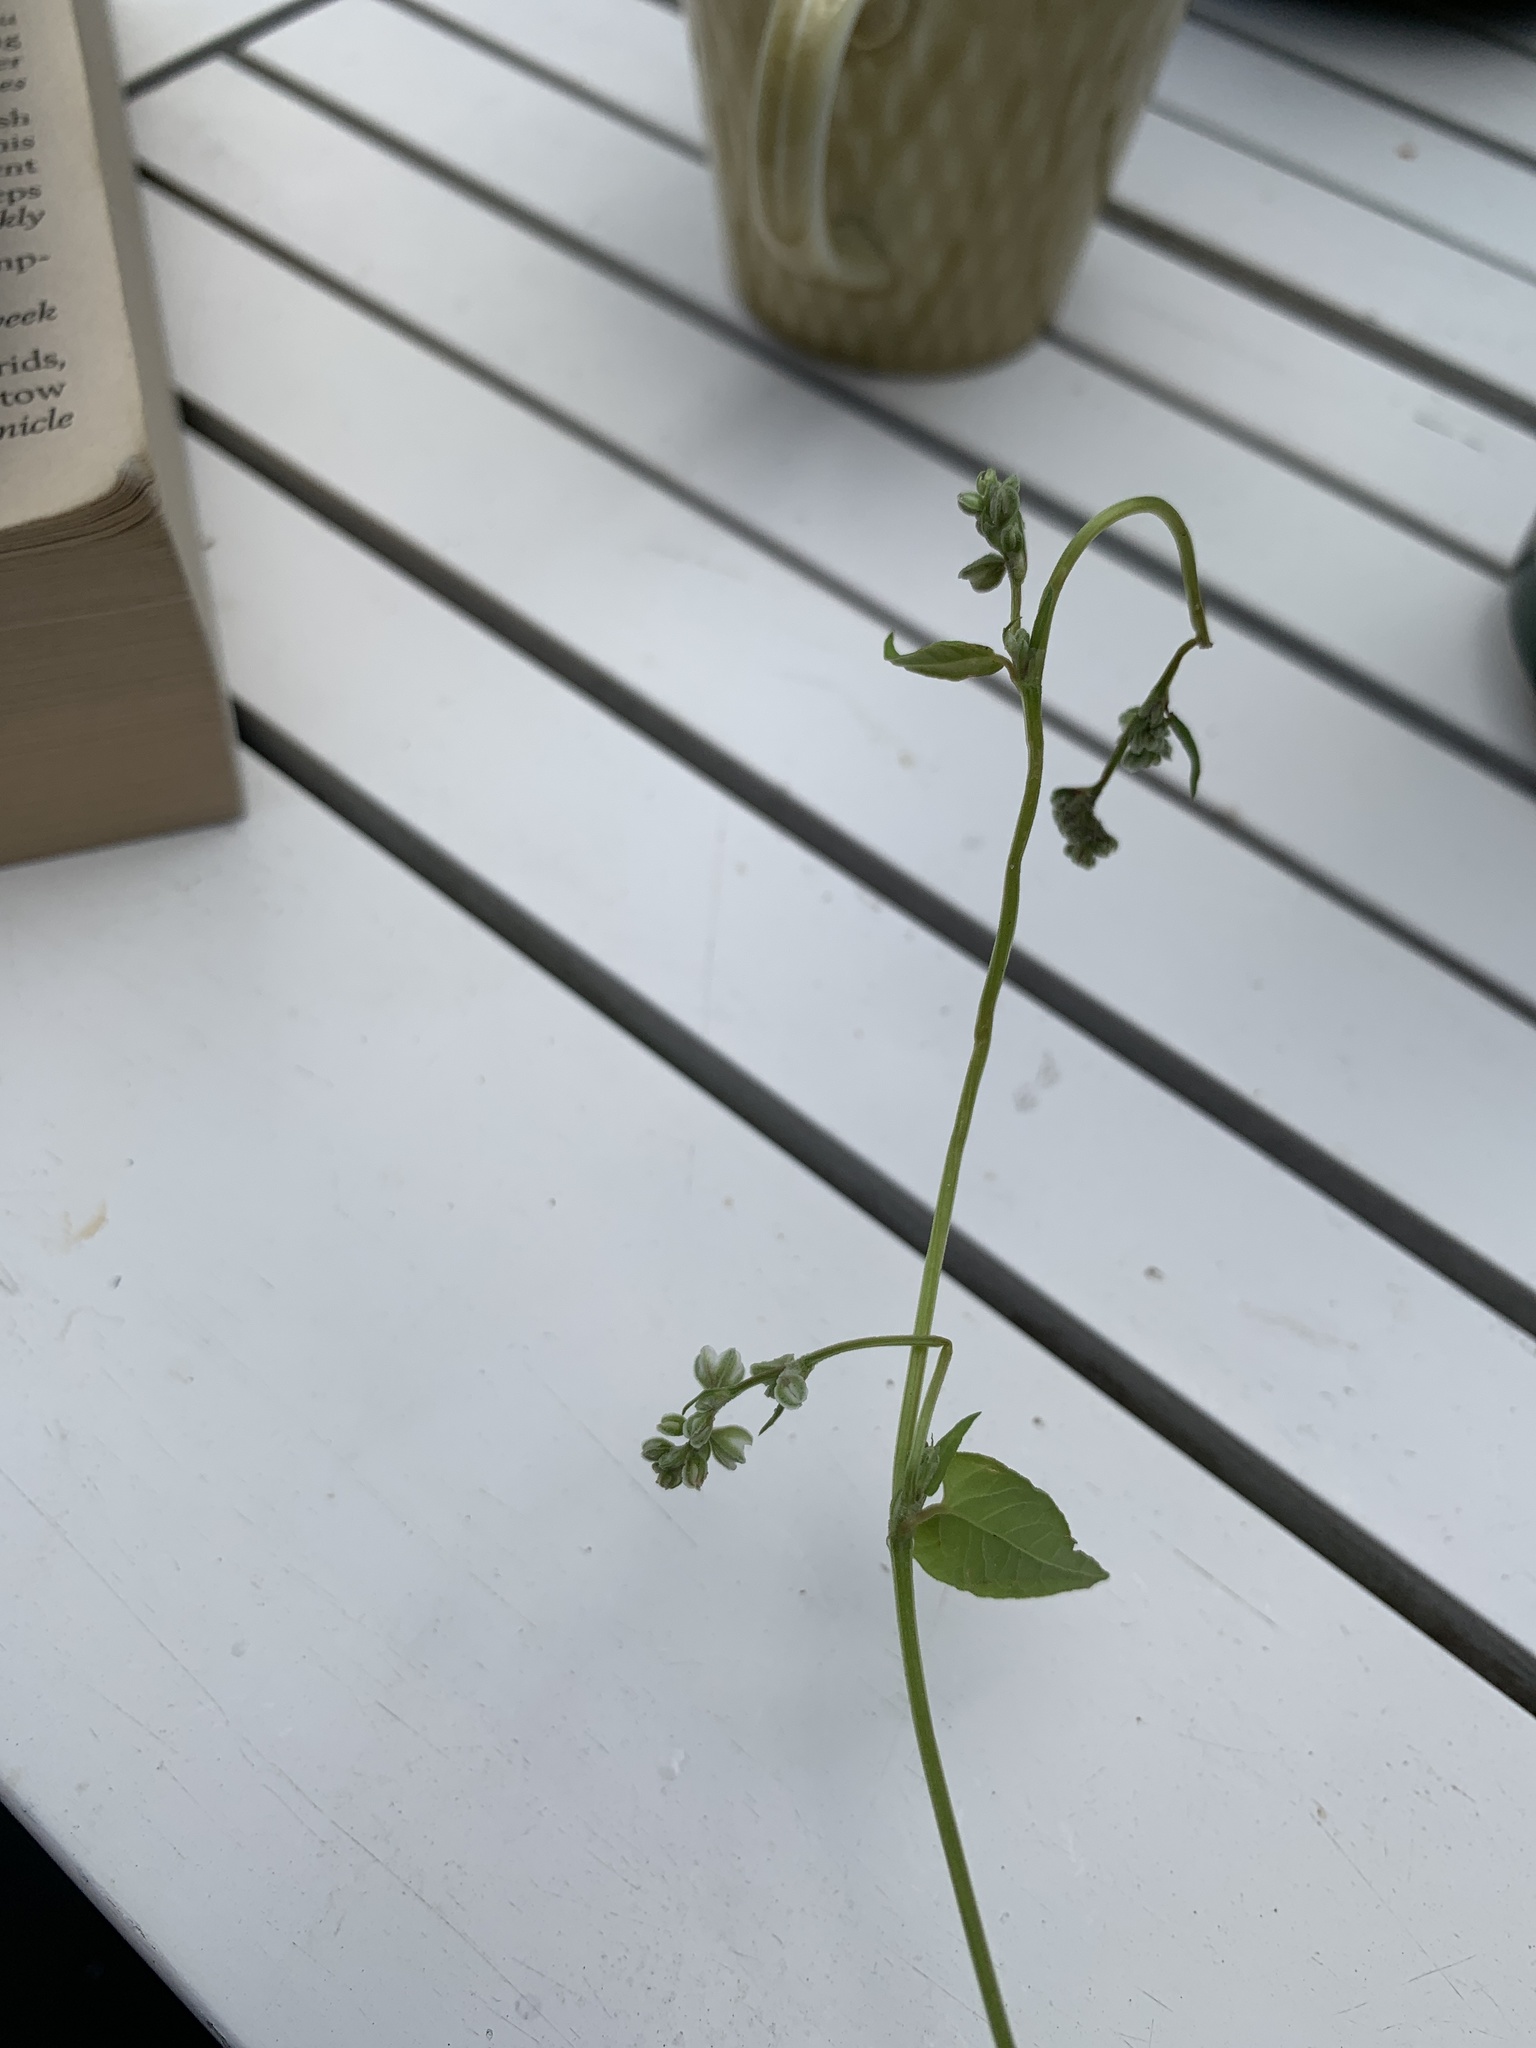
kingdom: Plantae
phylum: Tracheophyta
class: Magnoliopsida
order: Caryophyllales
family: Polygonaceae
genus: Fallopia
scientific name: Fallopia convolvulus
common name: Black bindweed
